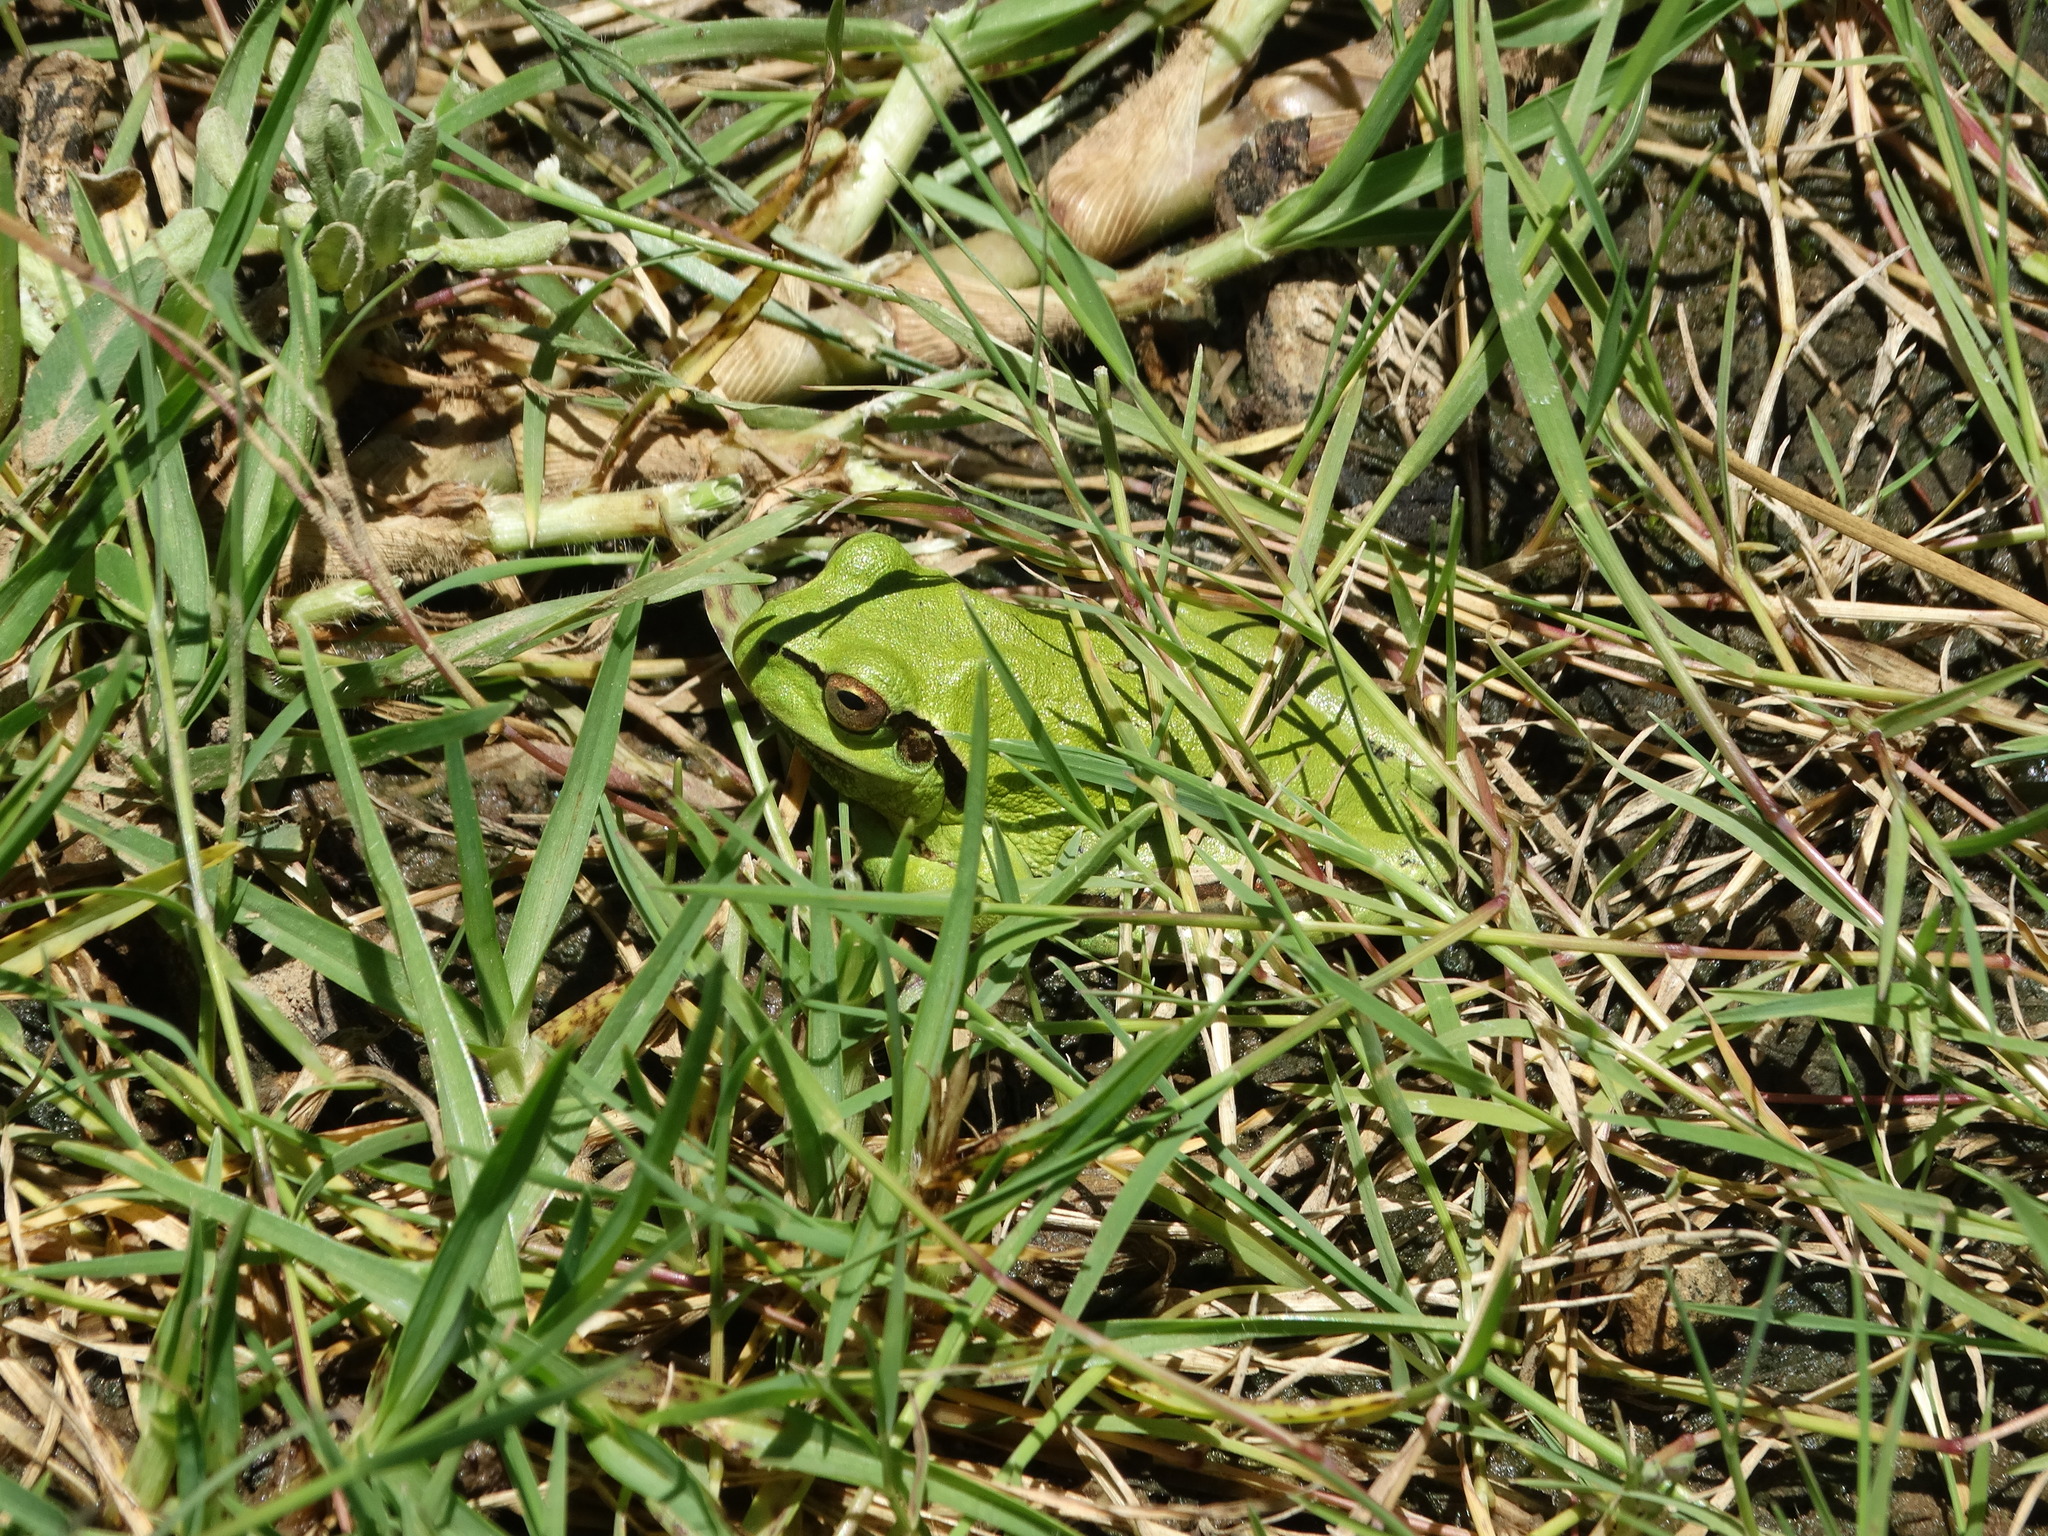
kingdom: Animalia
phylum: Chordata
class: Amphibia
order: Anura
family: Hylidae
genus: Dryophytes
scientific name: Dryophytes plicatus
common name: Ridged treefrog
